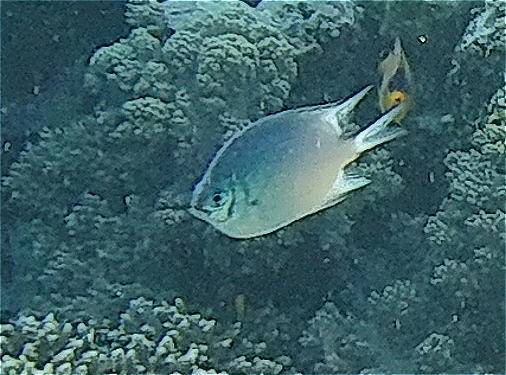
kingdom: Animalia
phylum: Chordata
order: Perciformes
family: Pomacentridae
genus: Amblyglyphidodon
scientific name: Amblyglyphidodon indicus
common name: Maldives damselfish
